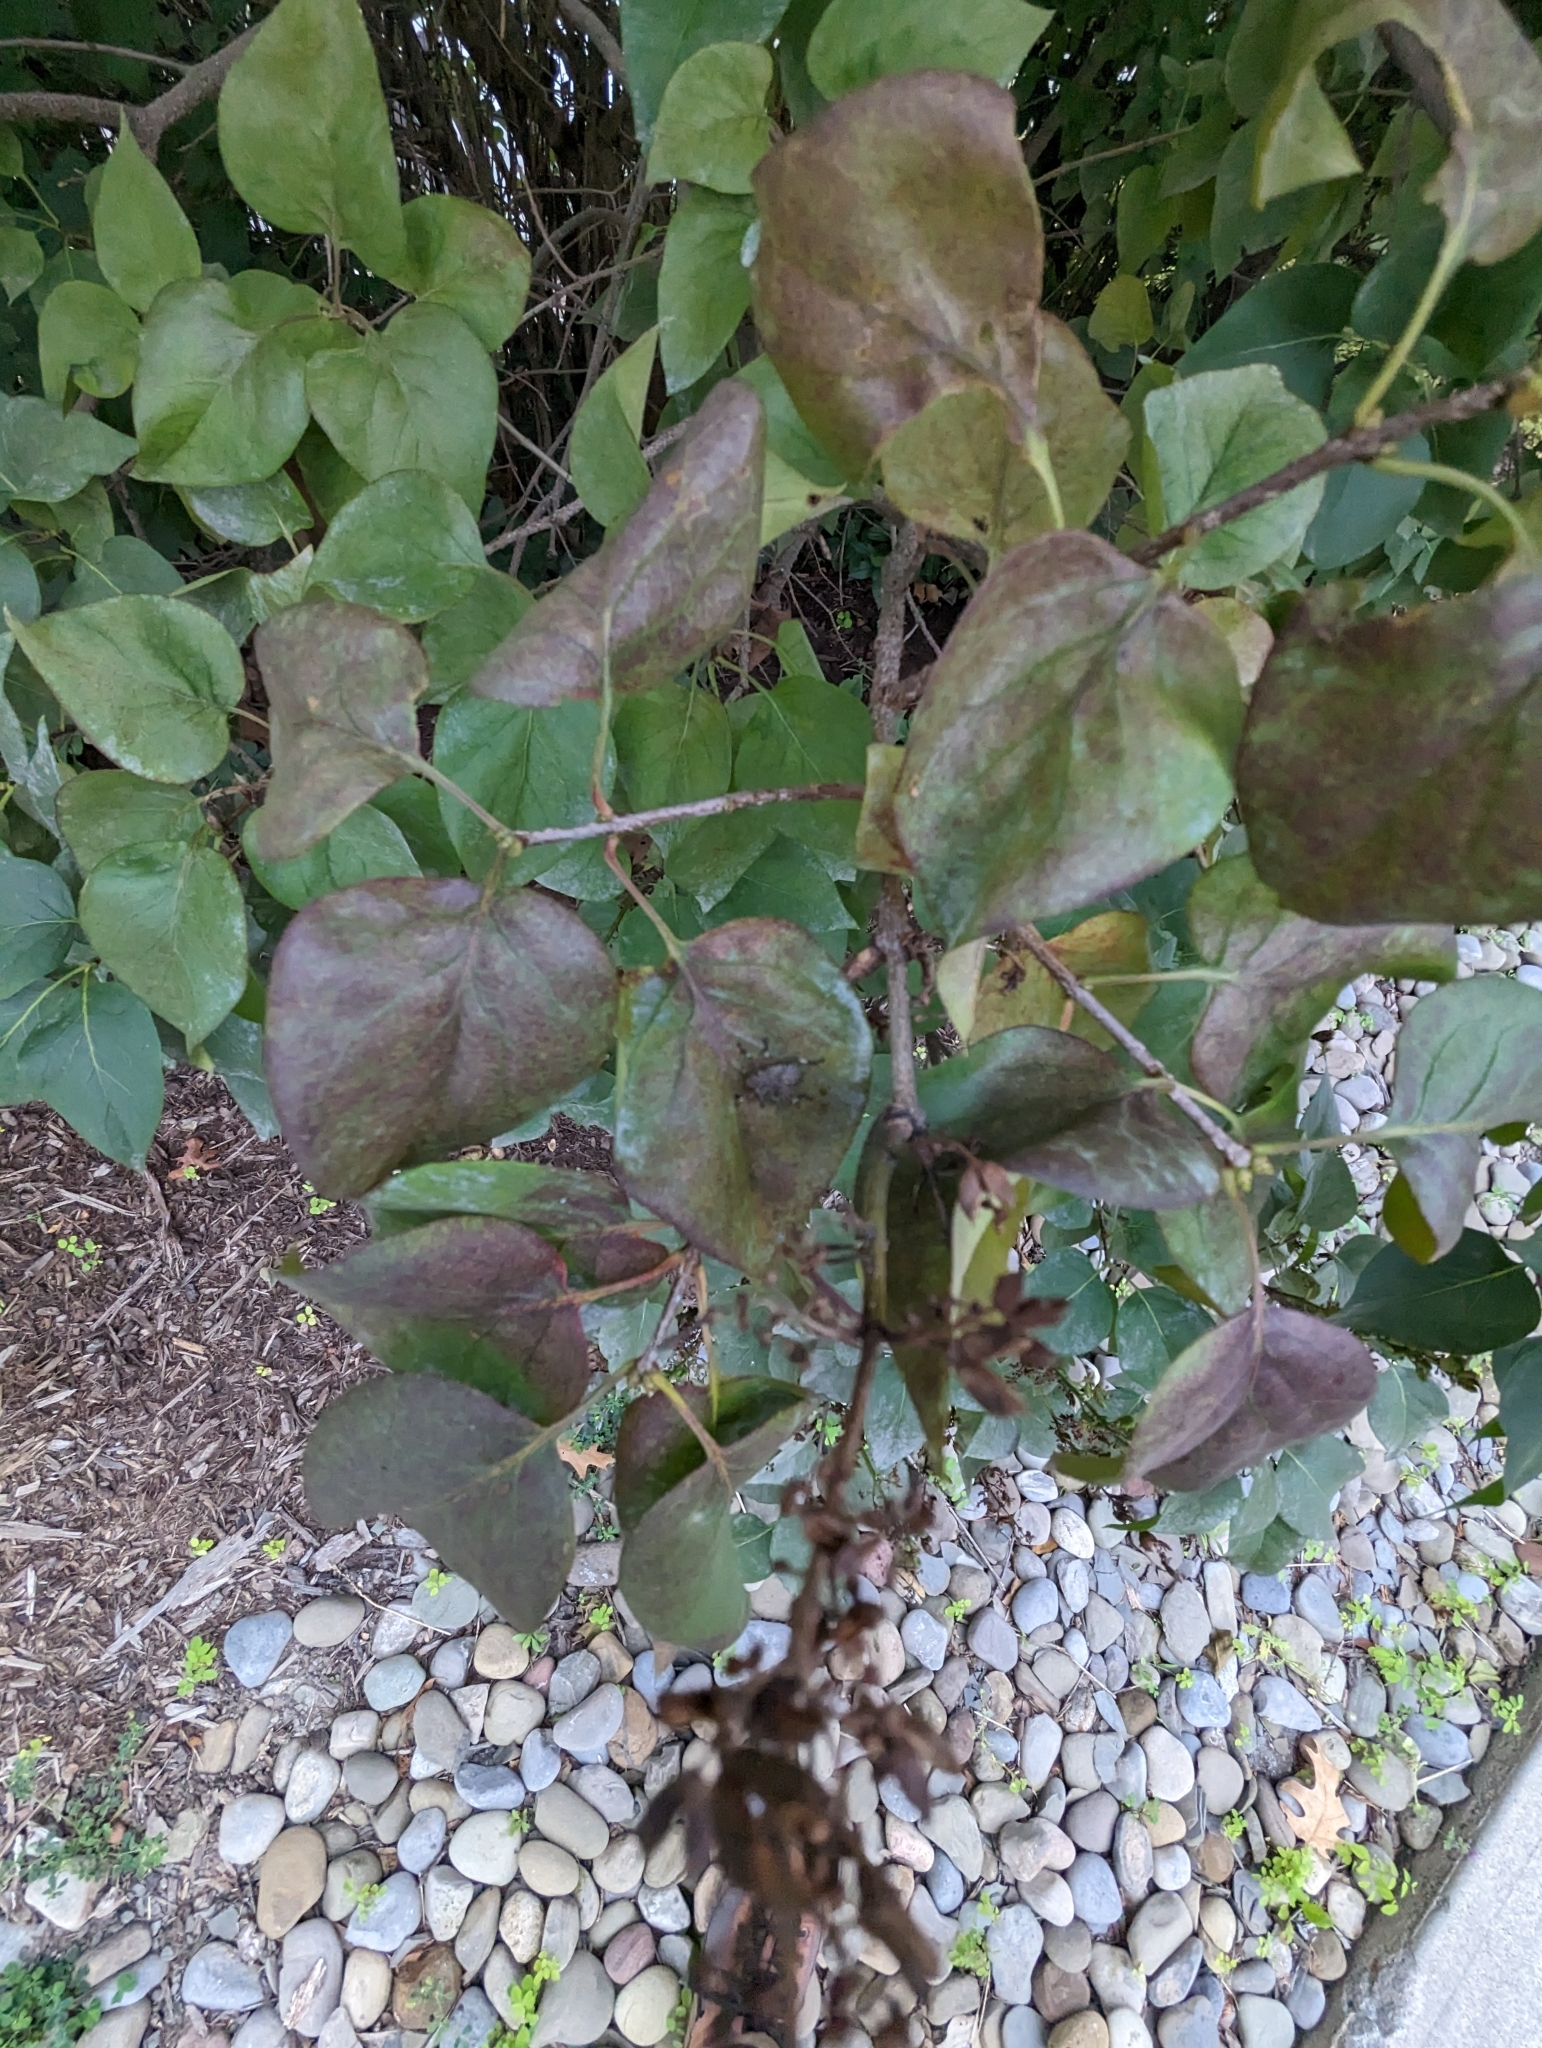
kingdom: Animalia
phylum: Arthropoda
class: Insecta
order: Hemiptera
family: Pentatomidae
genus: Halyomorpha
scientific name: Halyomorpha halys
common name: Brown marmorated stink bug
